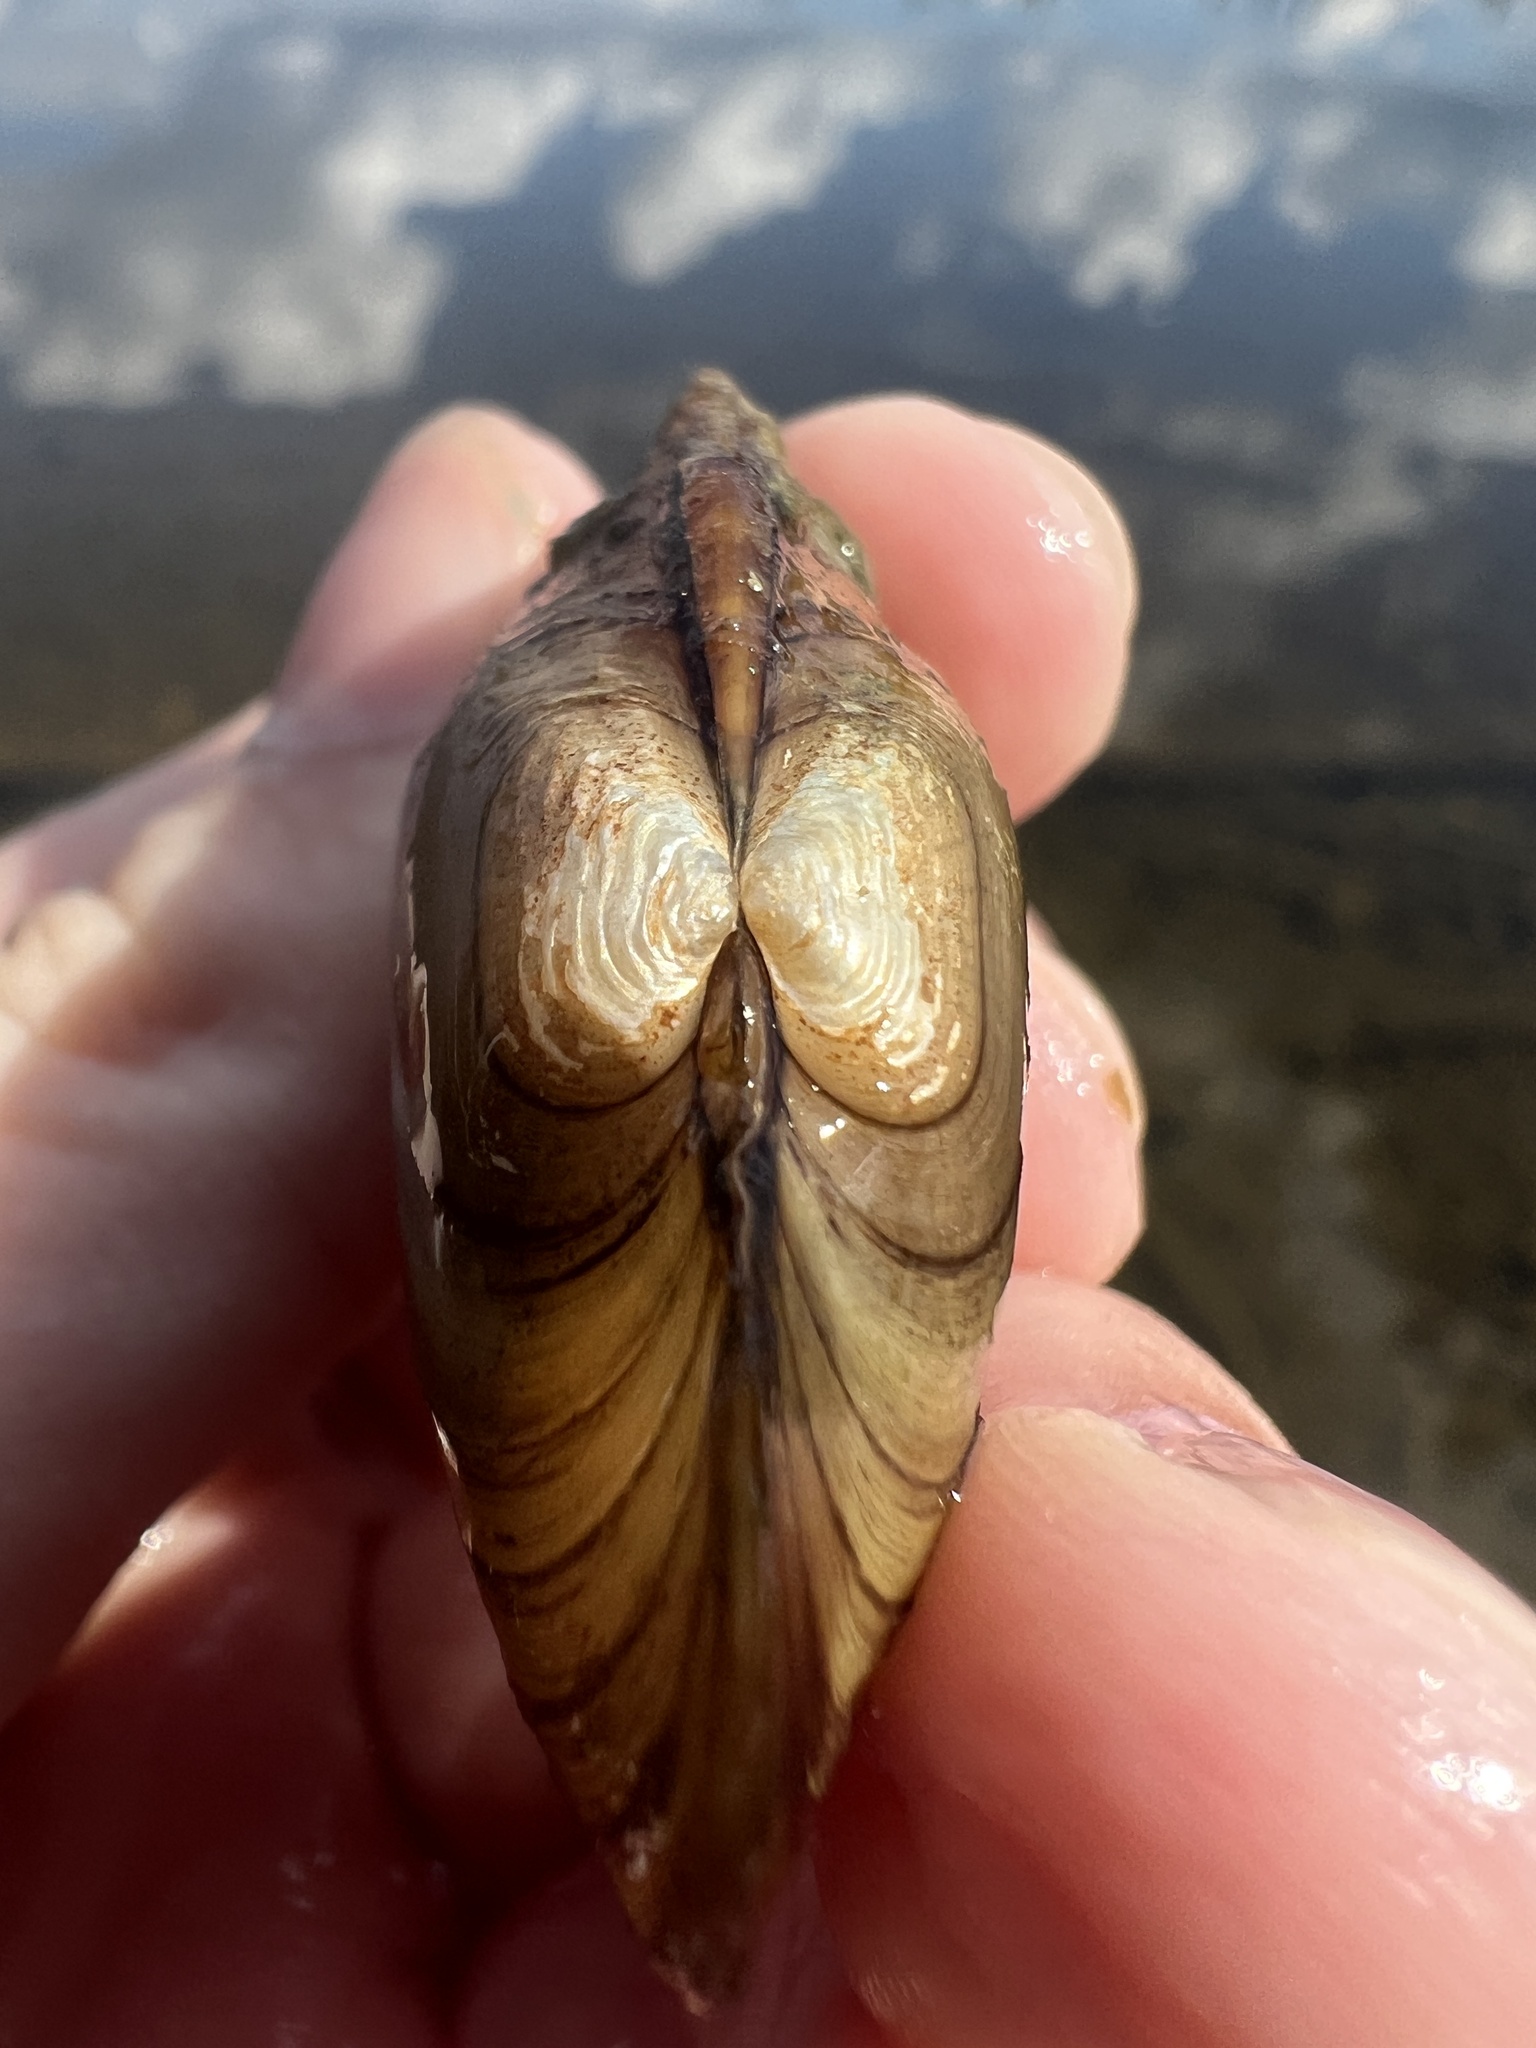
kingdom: Animalia
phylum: Mollusca
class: Bivalvia
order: Unionida
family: Unionidae
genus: Lampsilis
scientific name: Lampsilis siliquoidea
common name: Fatmucket
